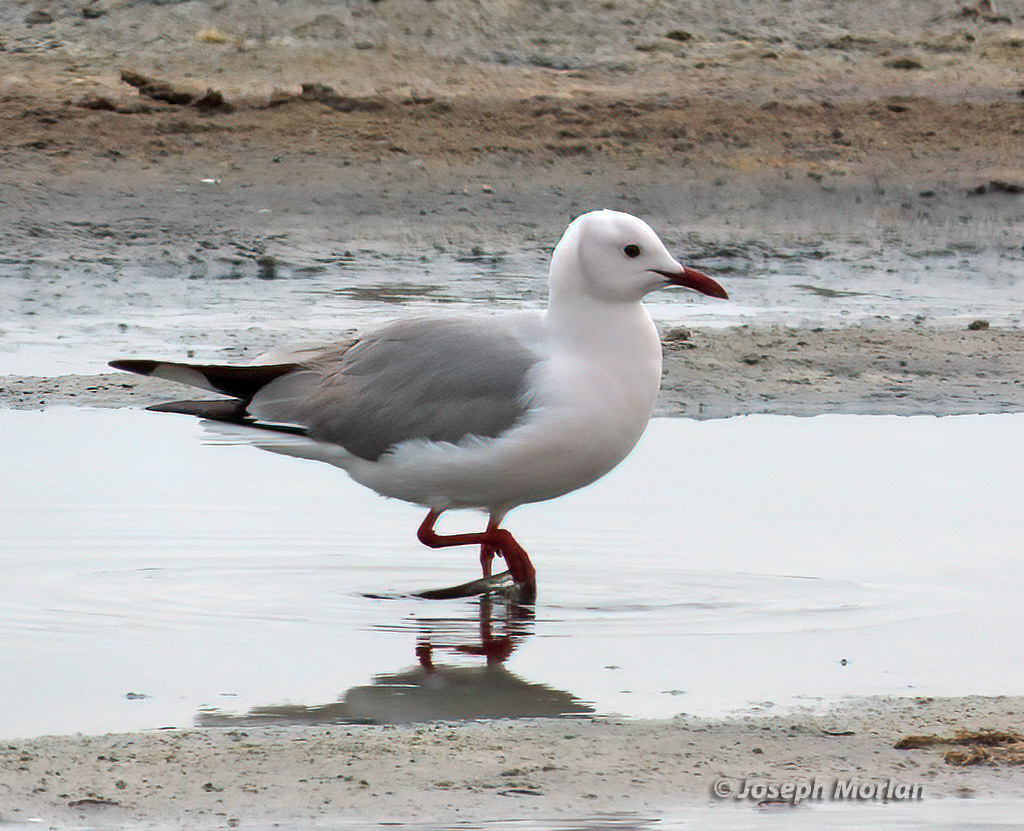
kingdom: Animalia
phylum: Chordata
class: Aves
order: Charadriiformes
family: Laridae
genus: Chroicocephalus
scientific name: Chroicocephalus hartlaubii
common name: Hartlaub's gull
